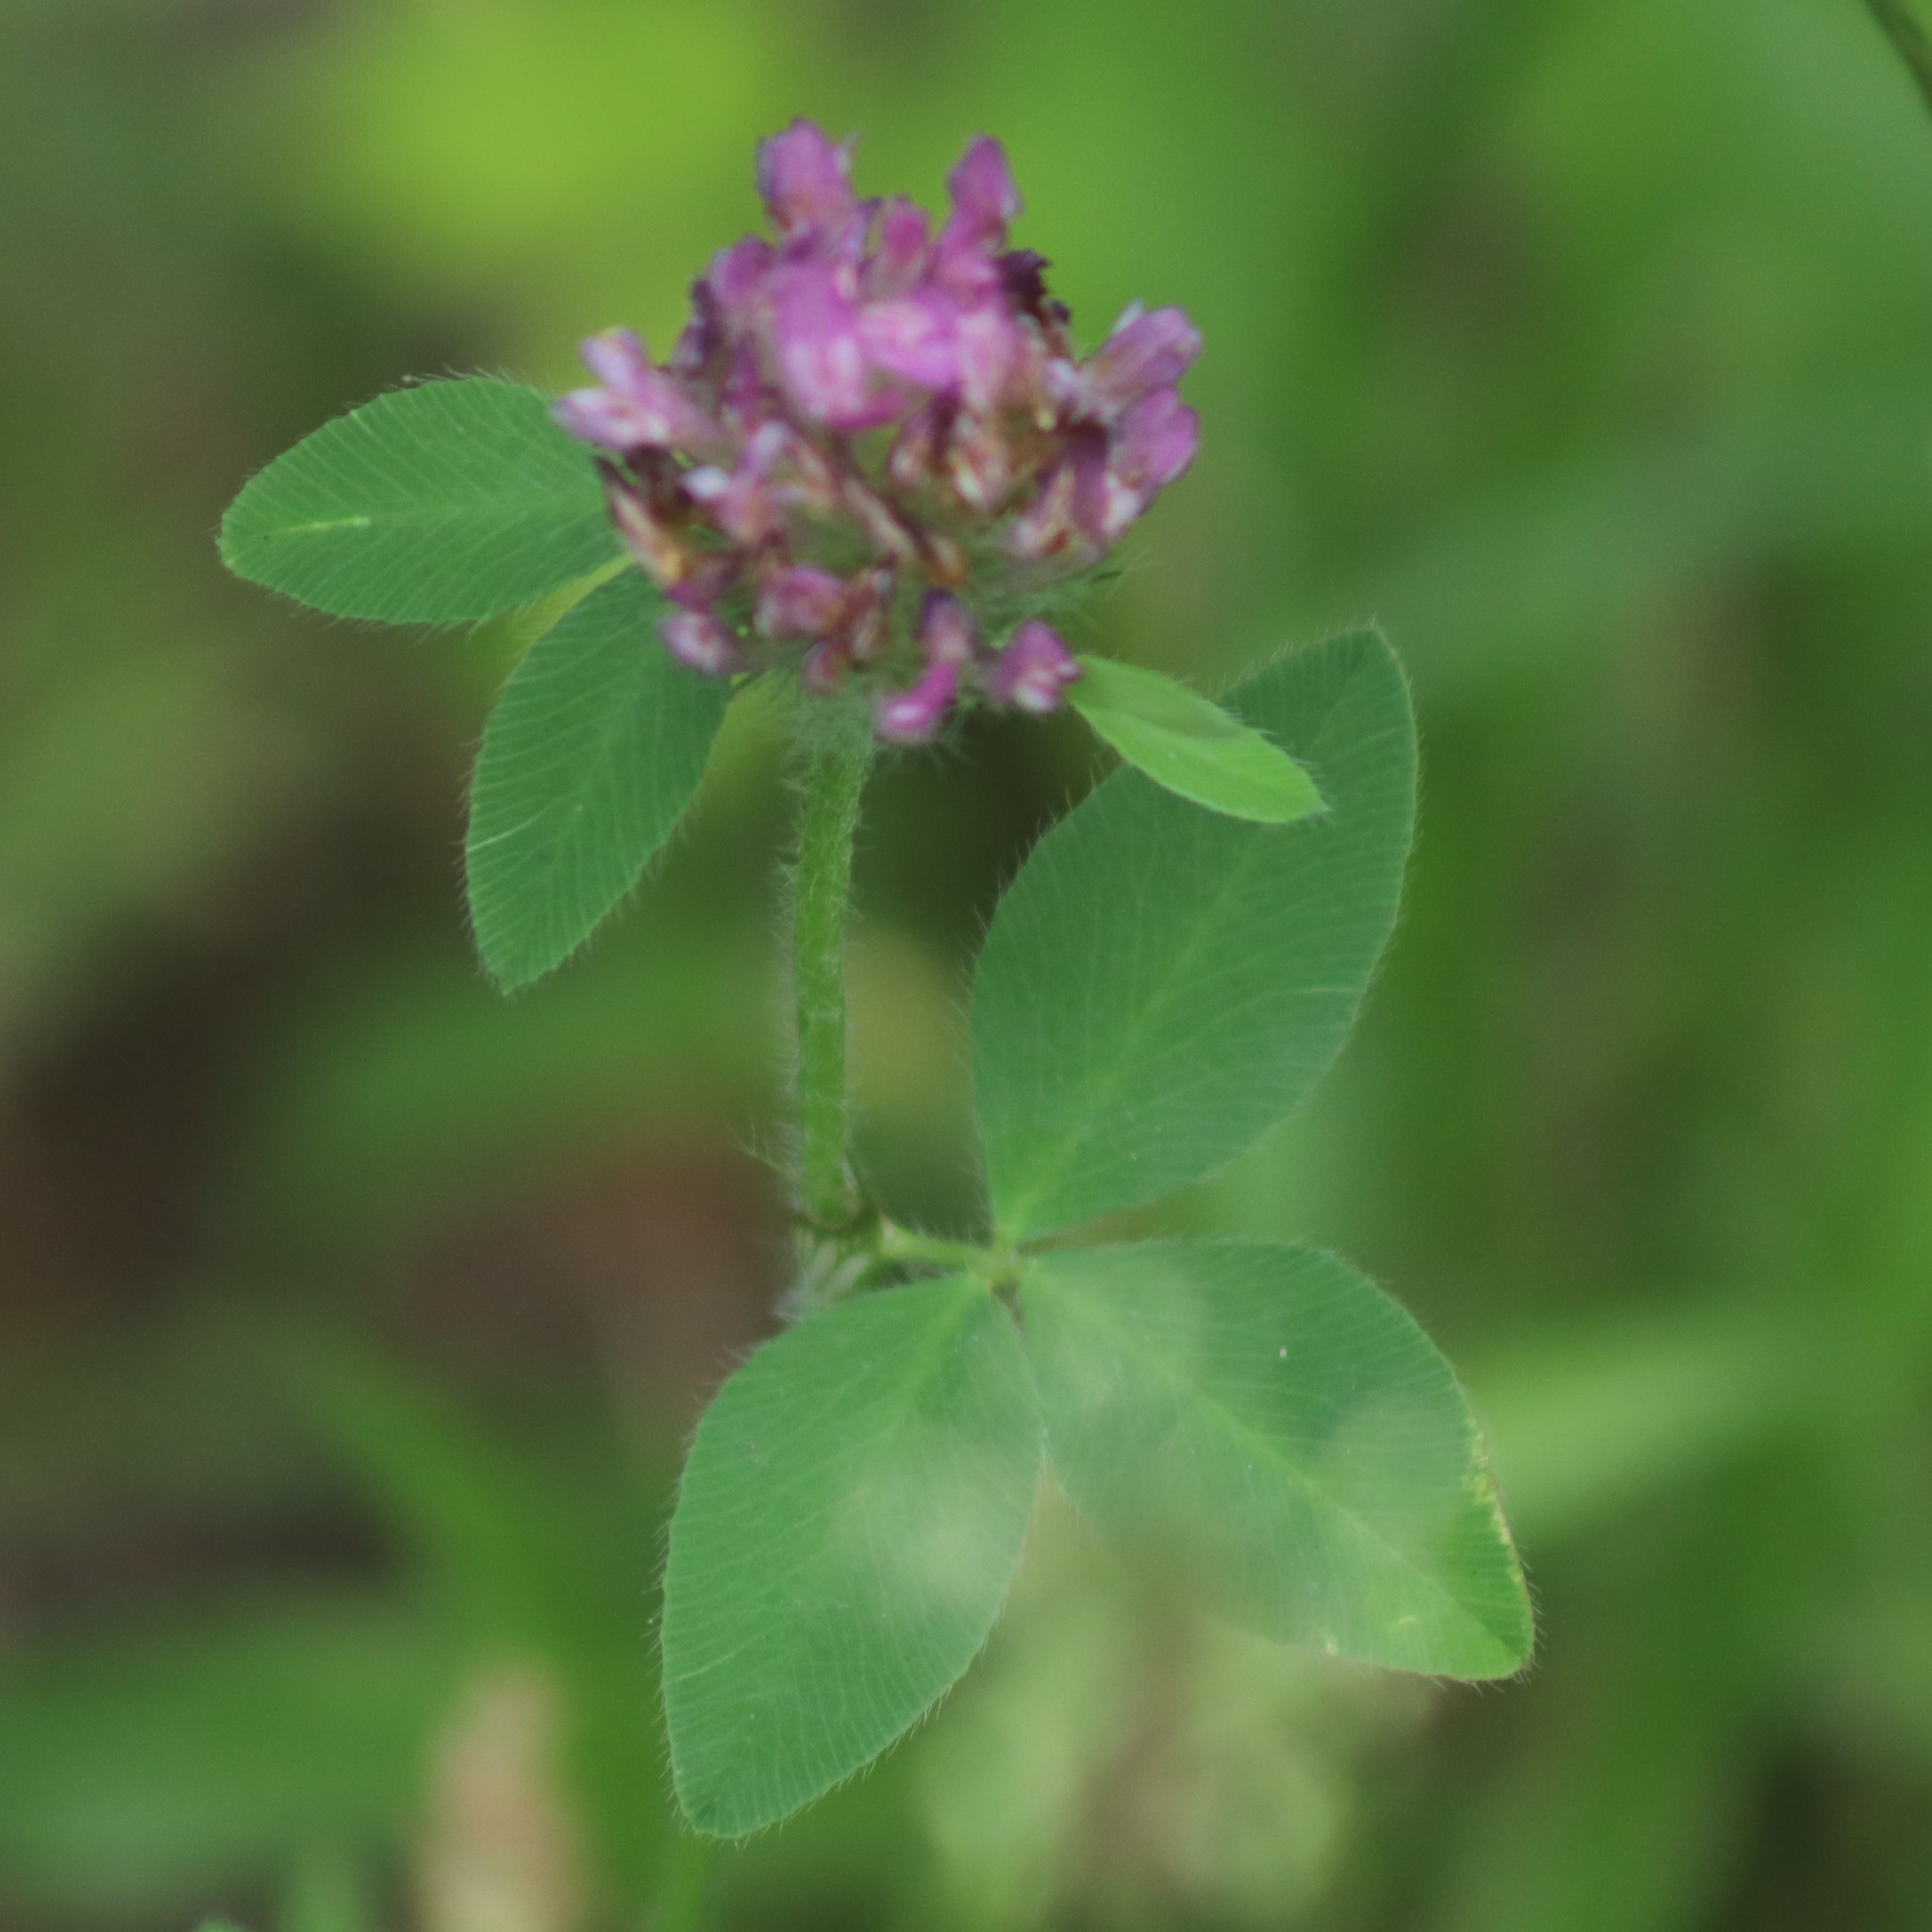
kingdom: Plantae
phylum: Tracheophyta
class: Magnoliopsida
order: Fabales
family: Fabaceae
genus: Trifolium
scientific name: Trifolium pratense
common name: Red clover
